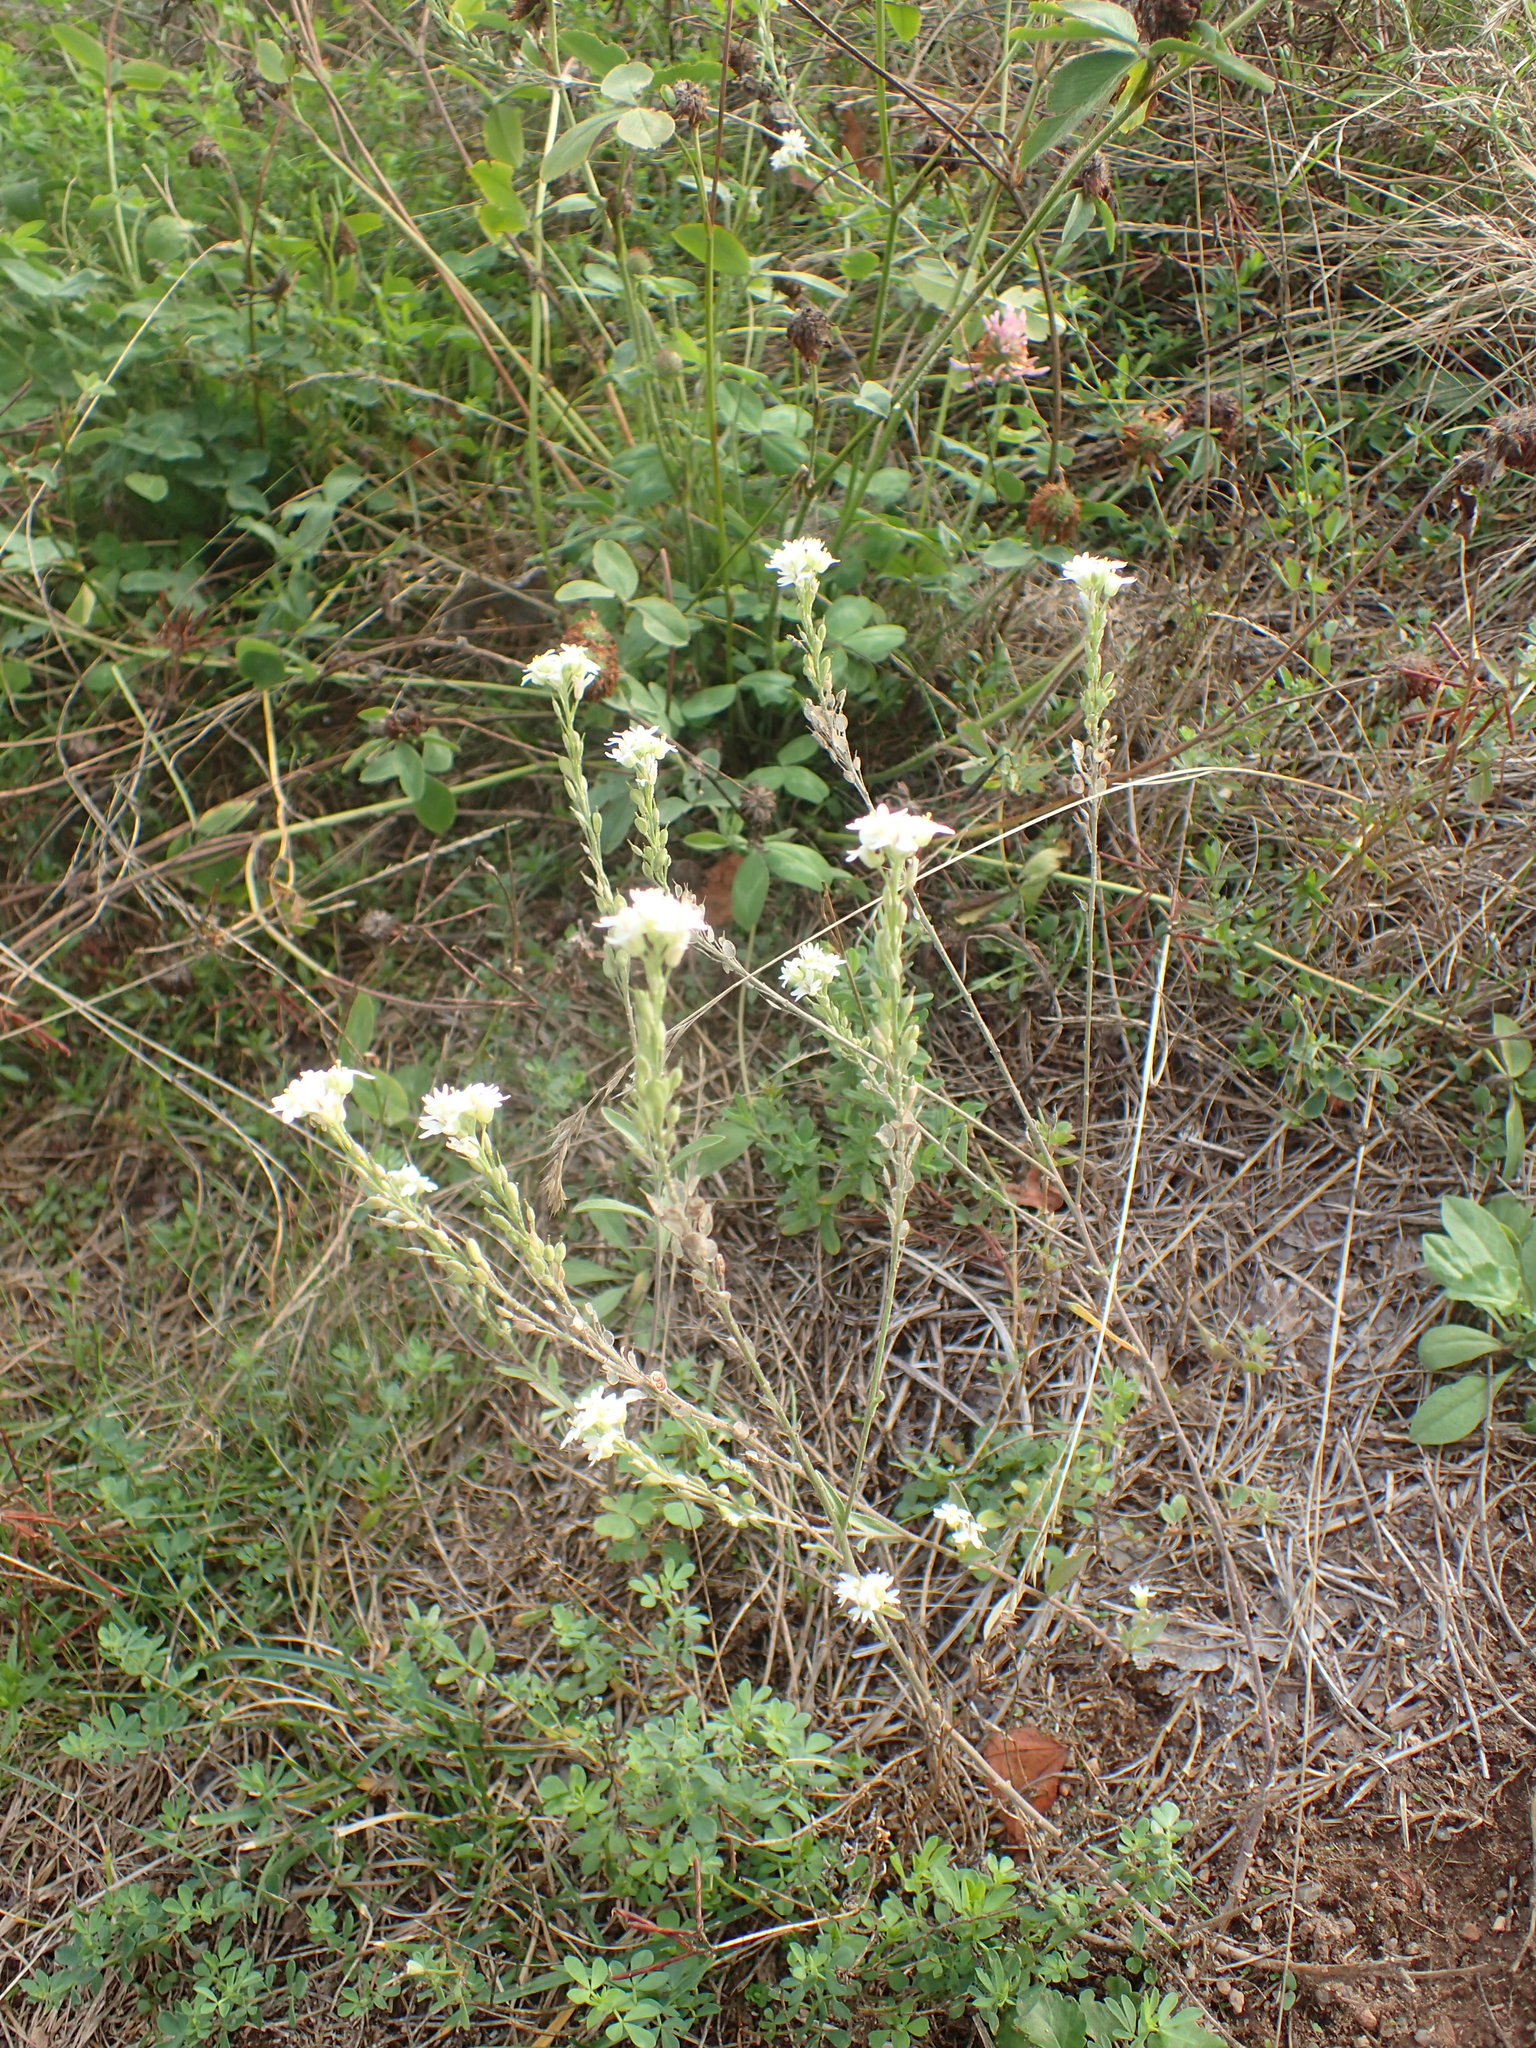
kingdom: Plantae
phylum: Tracheophyta
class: Magnoliopsida
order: Brassicales
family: Brassicaceae
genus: Berteroa
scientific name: Berteroa incana
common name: Hoary alison
